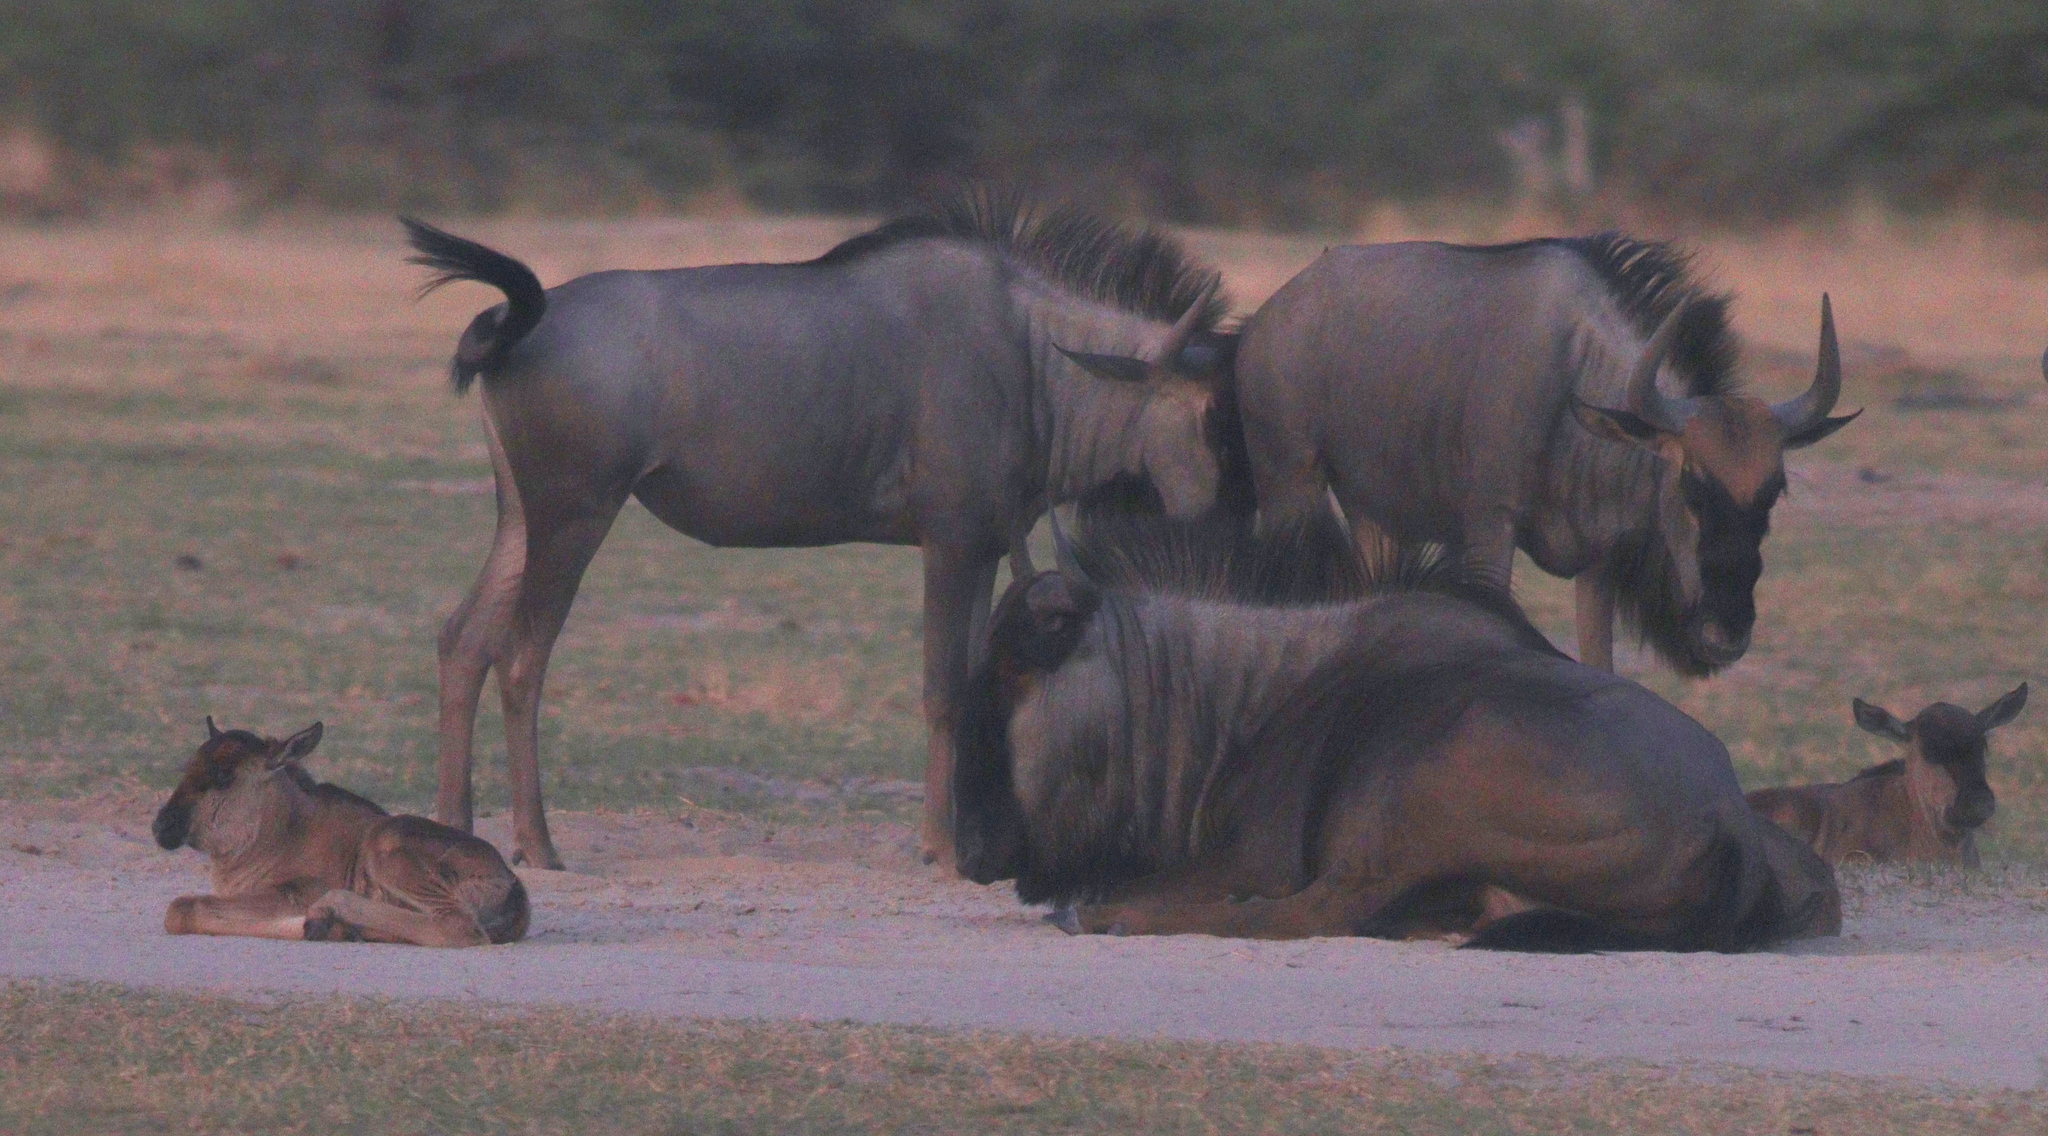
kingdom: Animalia
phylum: Chordata
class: Mammalia
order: Artiodactyla
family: Bovidae
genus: Connochaetes
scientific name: Connochaetes taurinus
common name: Blue wildebeest
